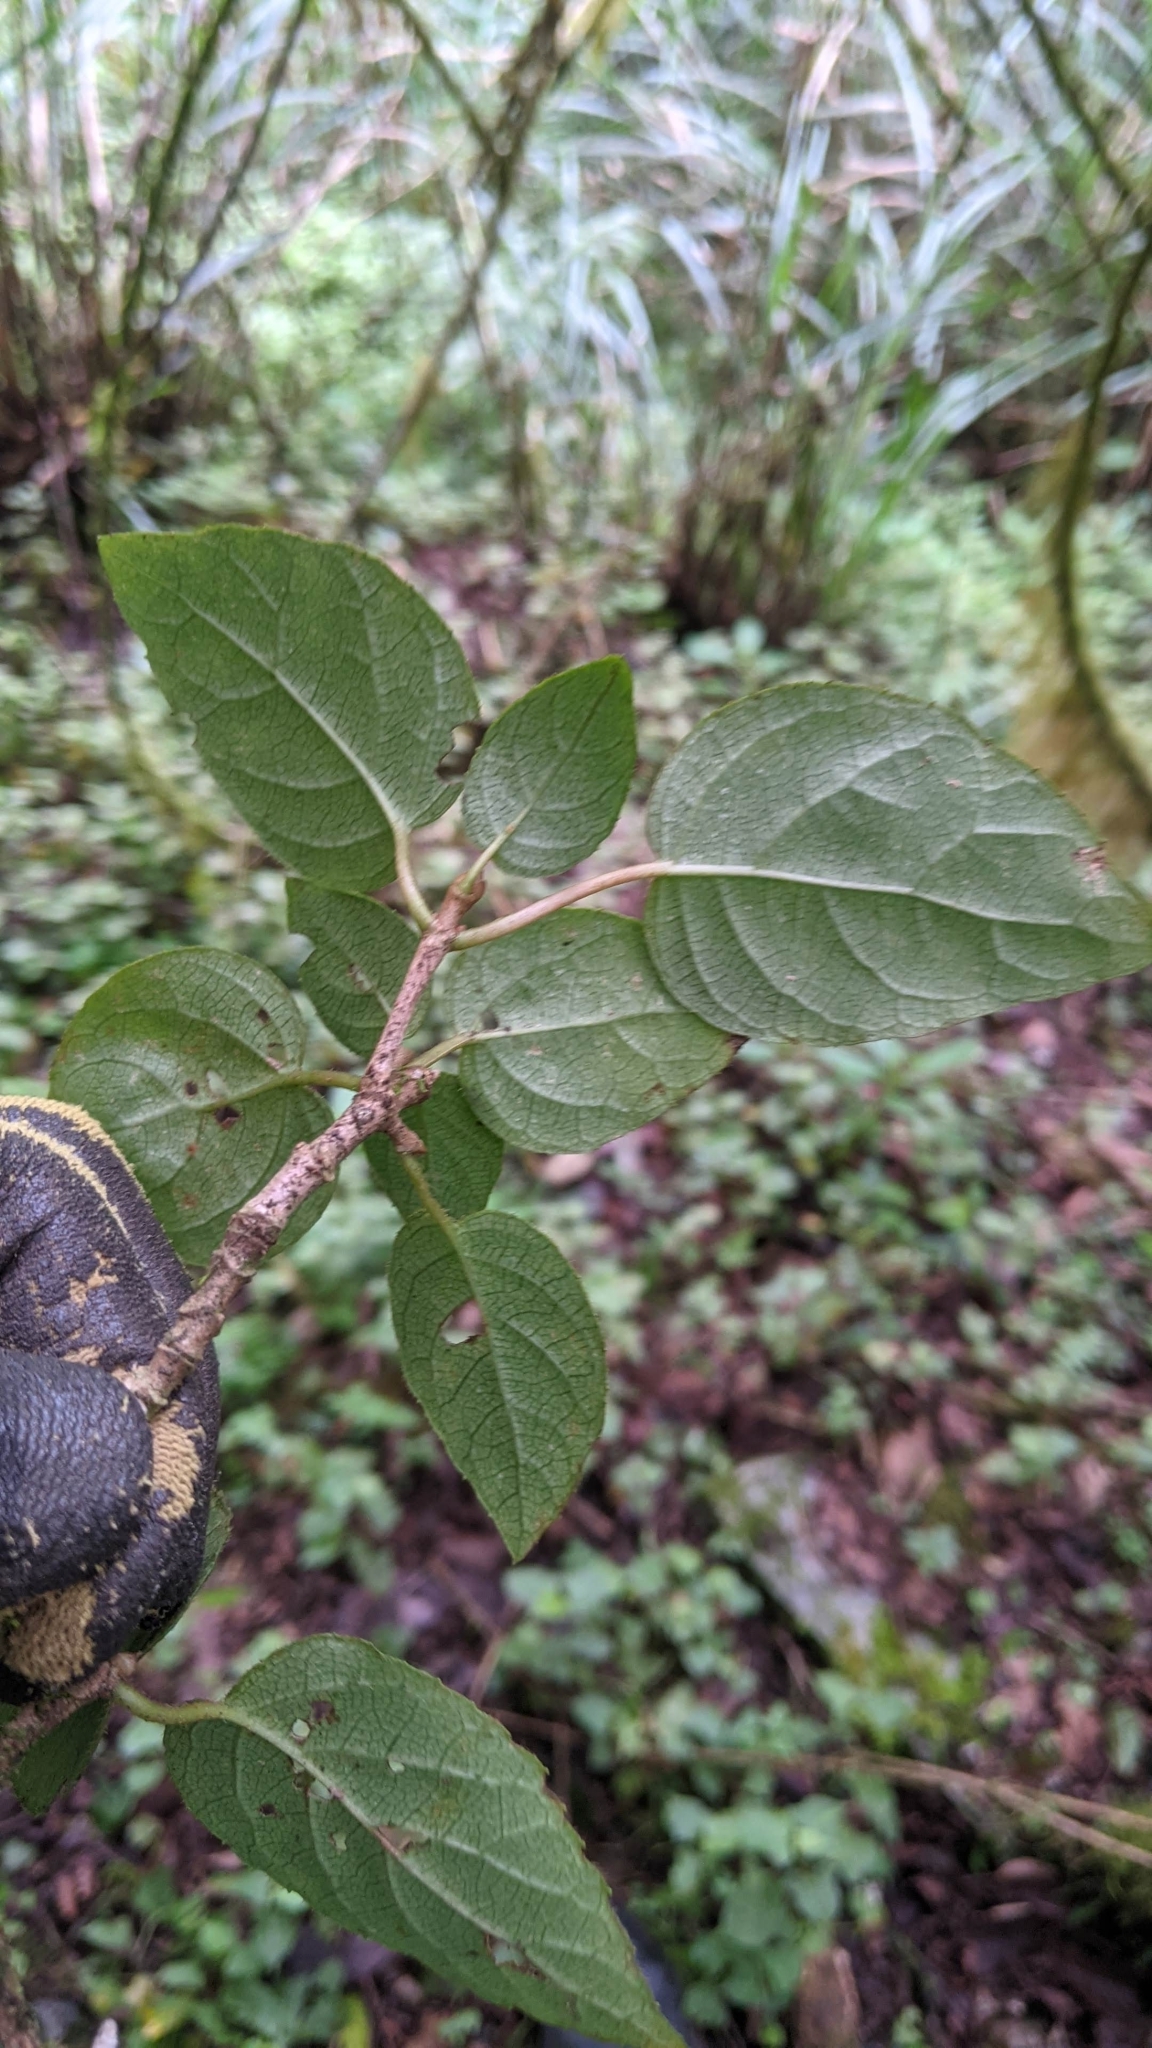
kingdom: Plantae
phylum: Tracheophyta
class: Magnoliopsida
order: Cornales
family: Hydrangeaceae
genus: Hydrangea
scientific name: Hydrangea fauriei
